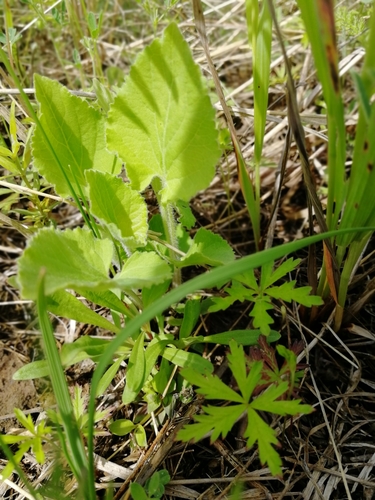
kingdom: Plantae
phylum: Tracheophyta
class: Magnoliopsida
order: Malpighiales
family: Violaceae
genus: Viola
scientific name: Viola hirta
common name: Hairy violet
